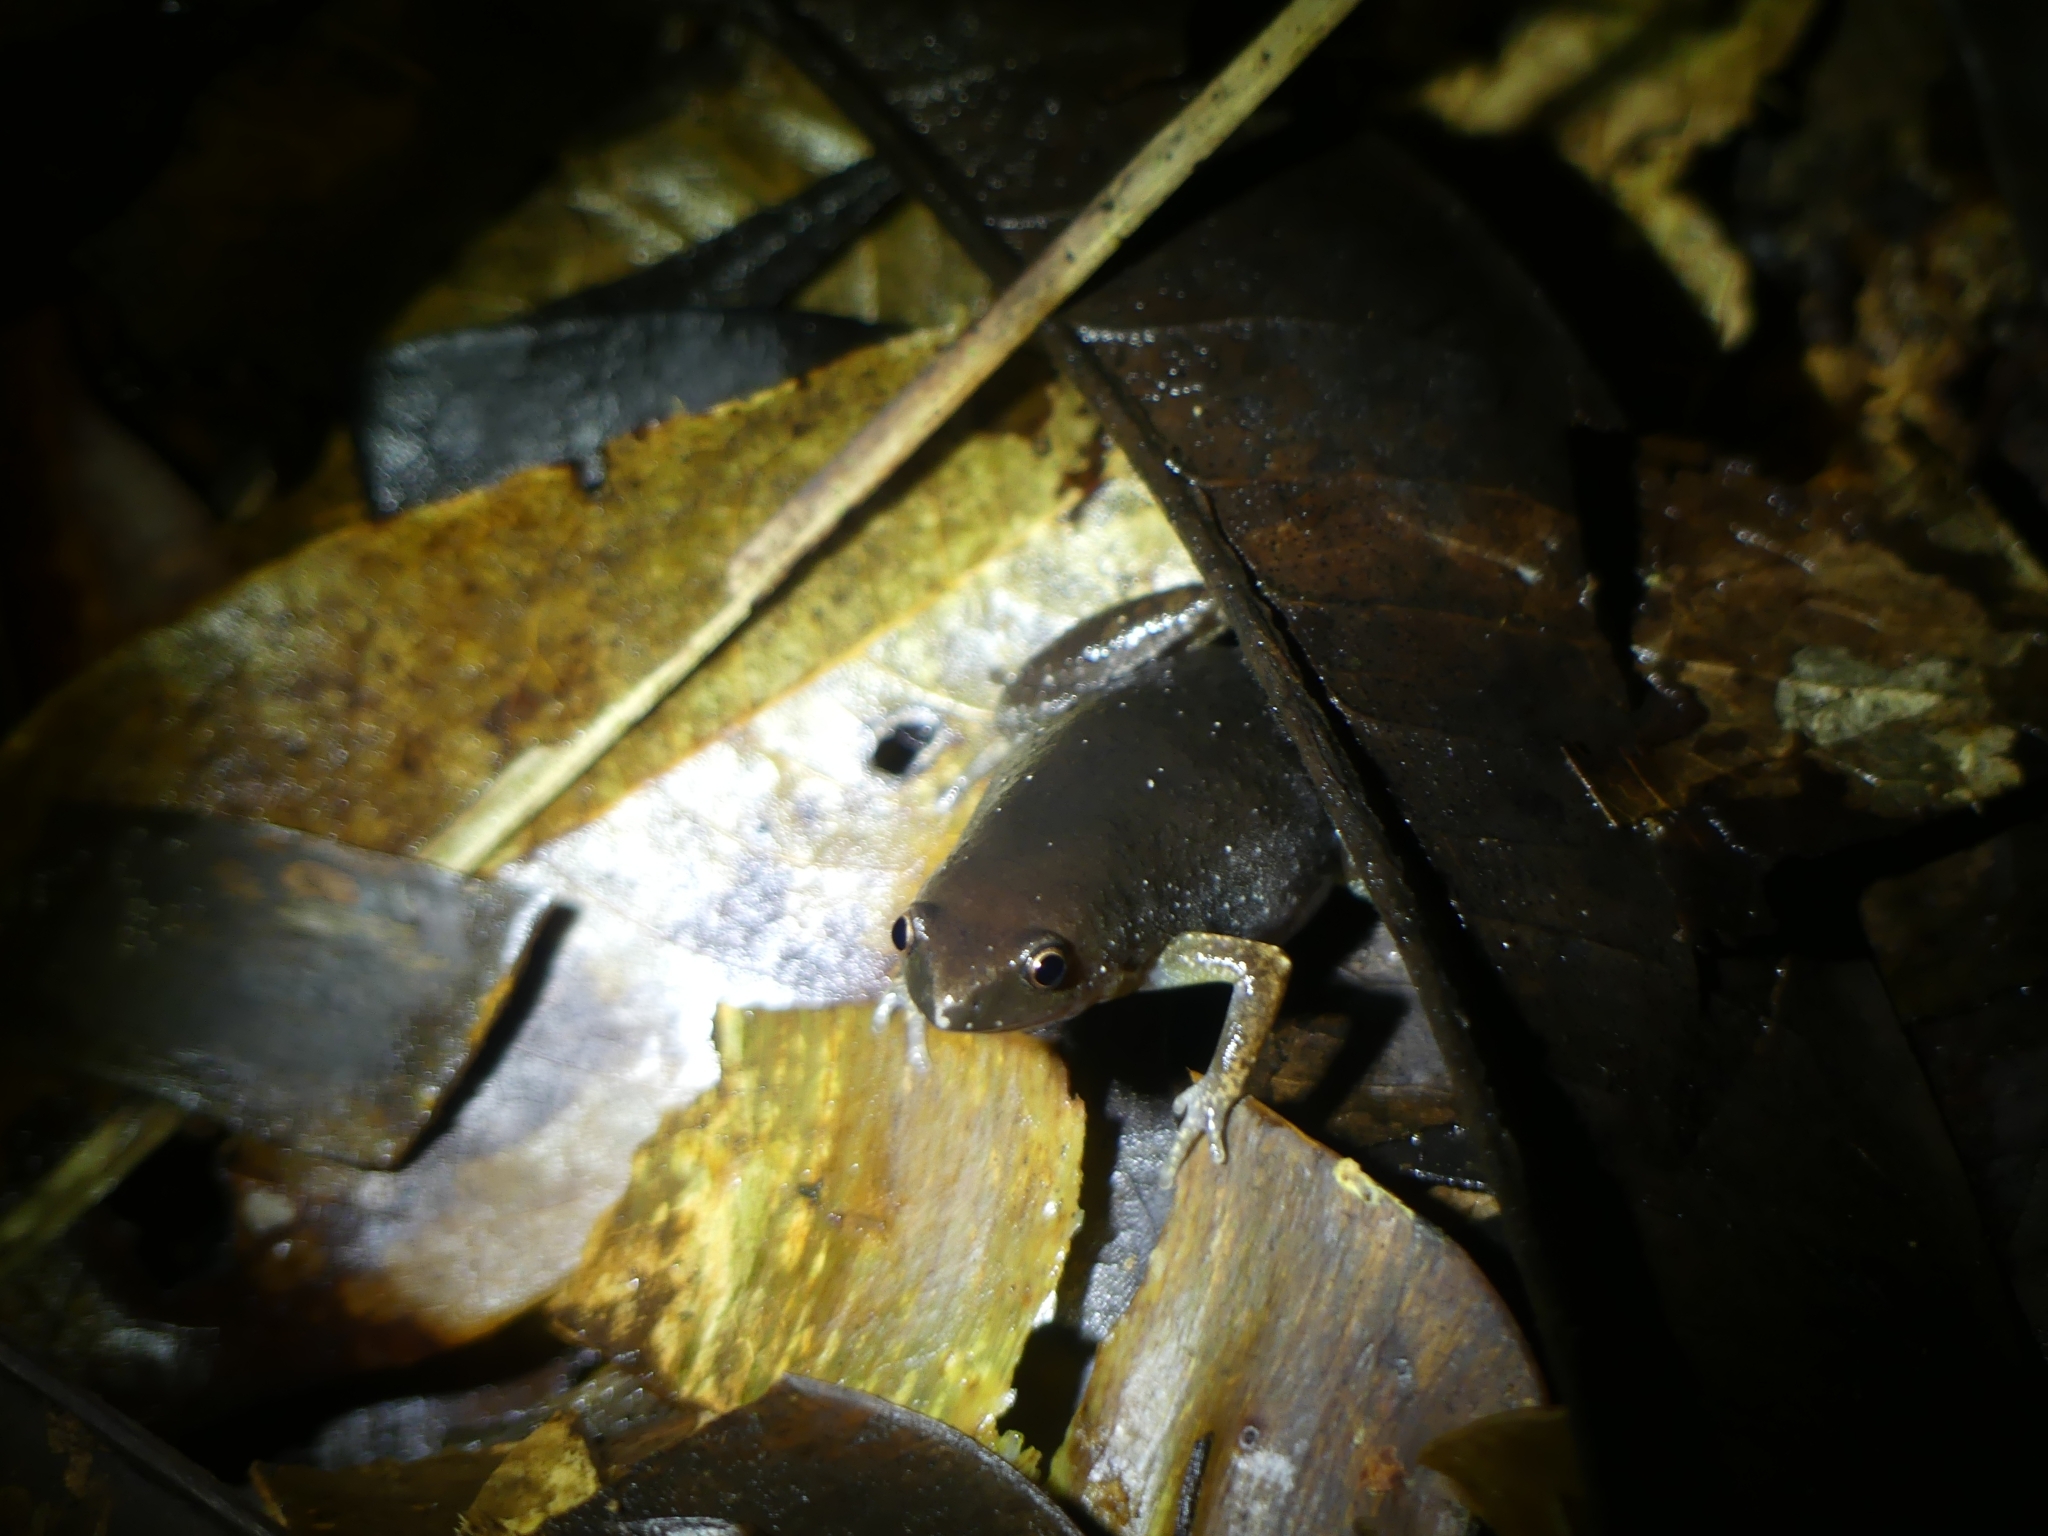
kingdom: Animalia
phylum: Chordata
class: Amphibia
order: Anura
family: Microhylidae
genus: Chiasmocleis
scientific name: Chiasmocleis shudikarensis
